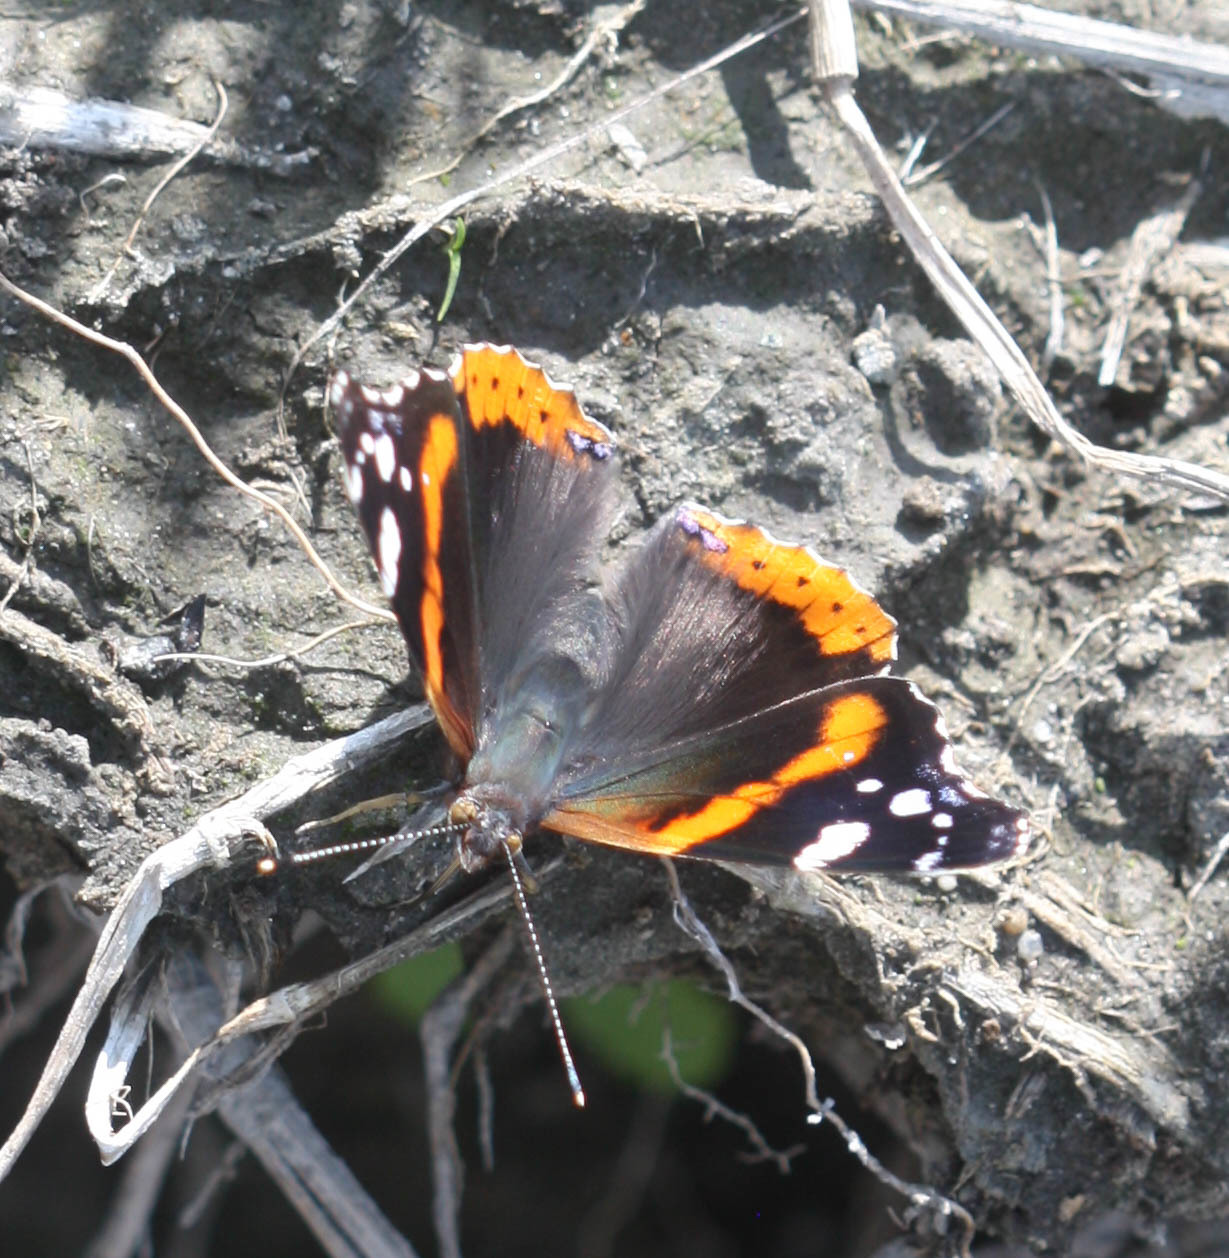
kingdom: Animalia
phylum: Arthropoda
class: Insecta
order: Lepidoptera
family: Nymphalidae
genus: Vanessa
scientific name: Vanessa atalanta
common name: Red admiral
